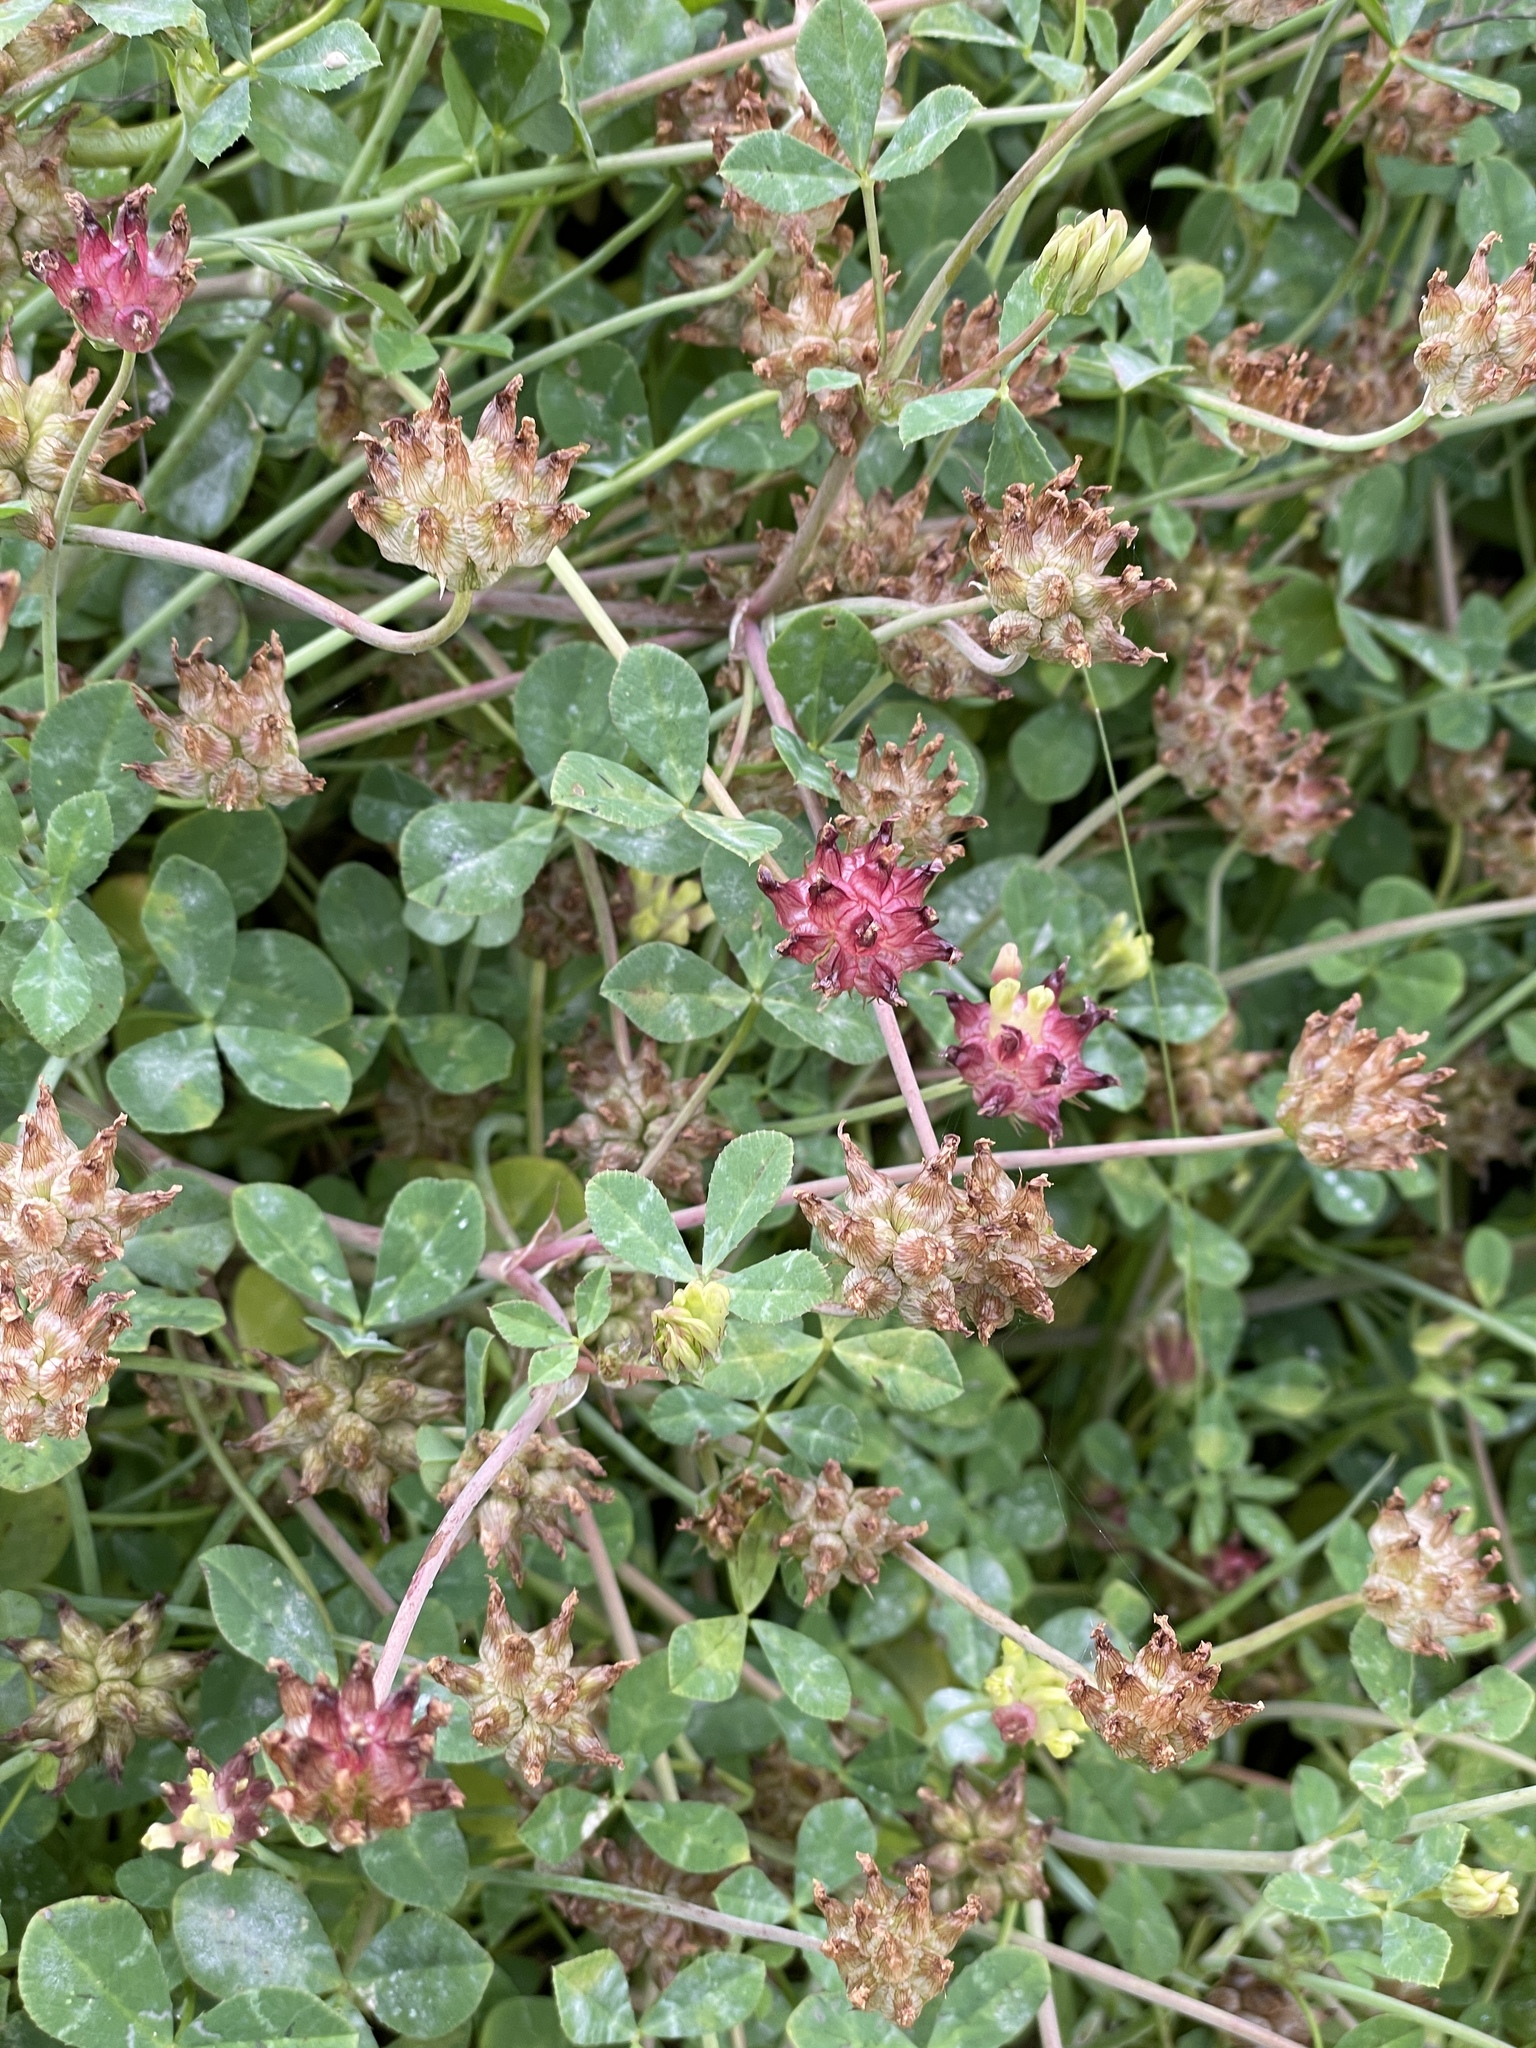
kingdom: Plantae
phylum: Tracheophyta
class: Magnoliopsida
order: Fabales
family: Fabaceae
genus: Trifolium
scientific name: Trifolium fucatum
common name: Puff clover
